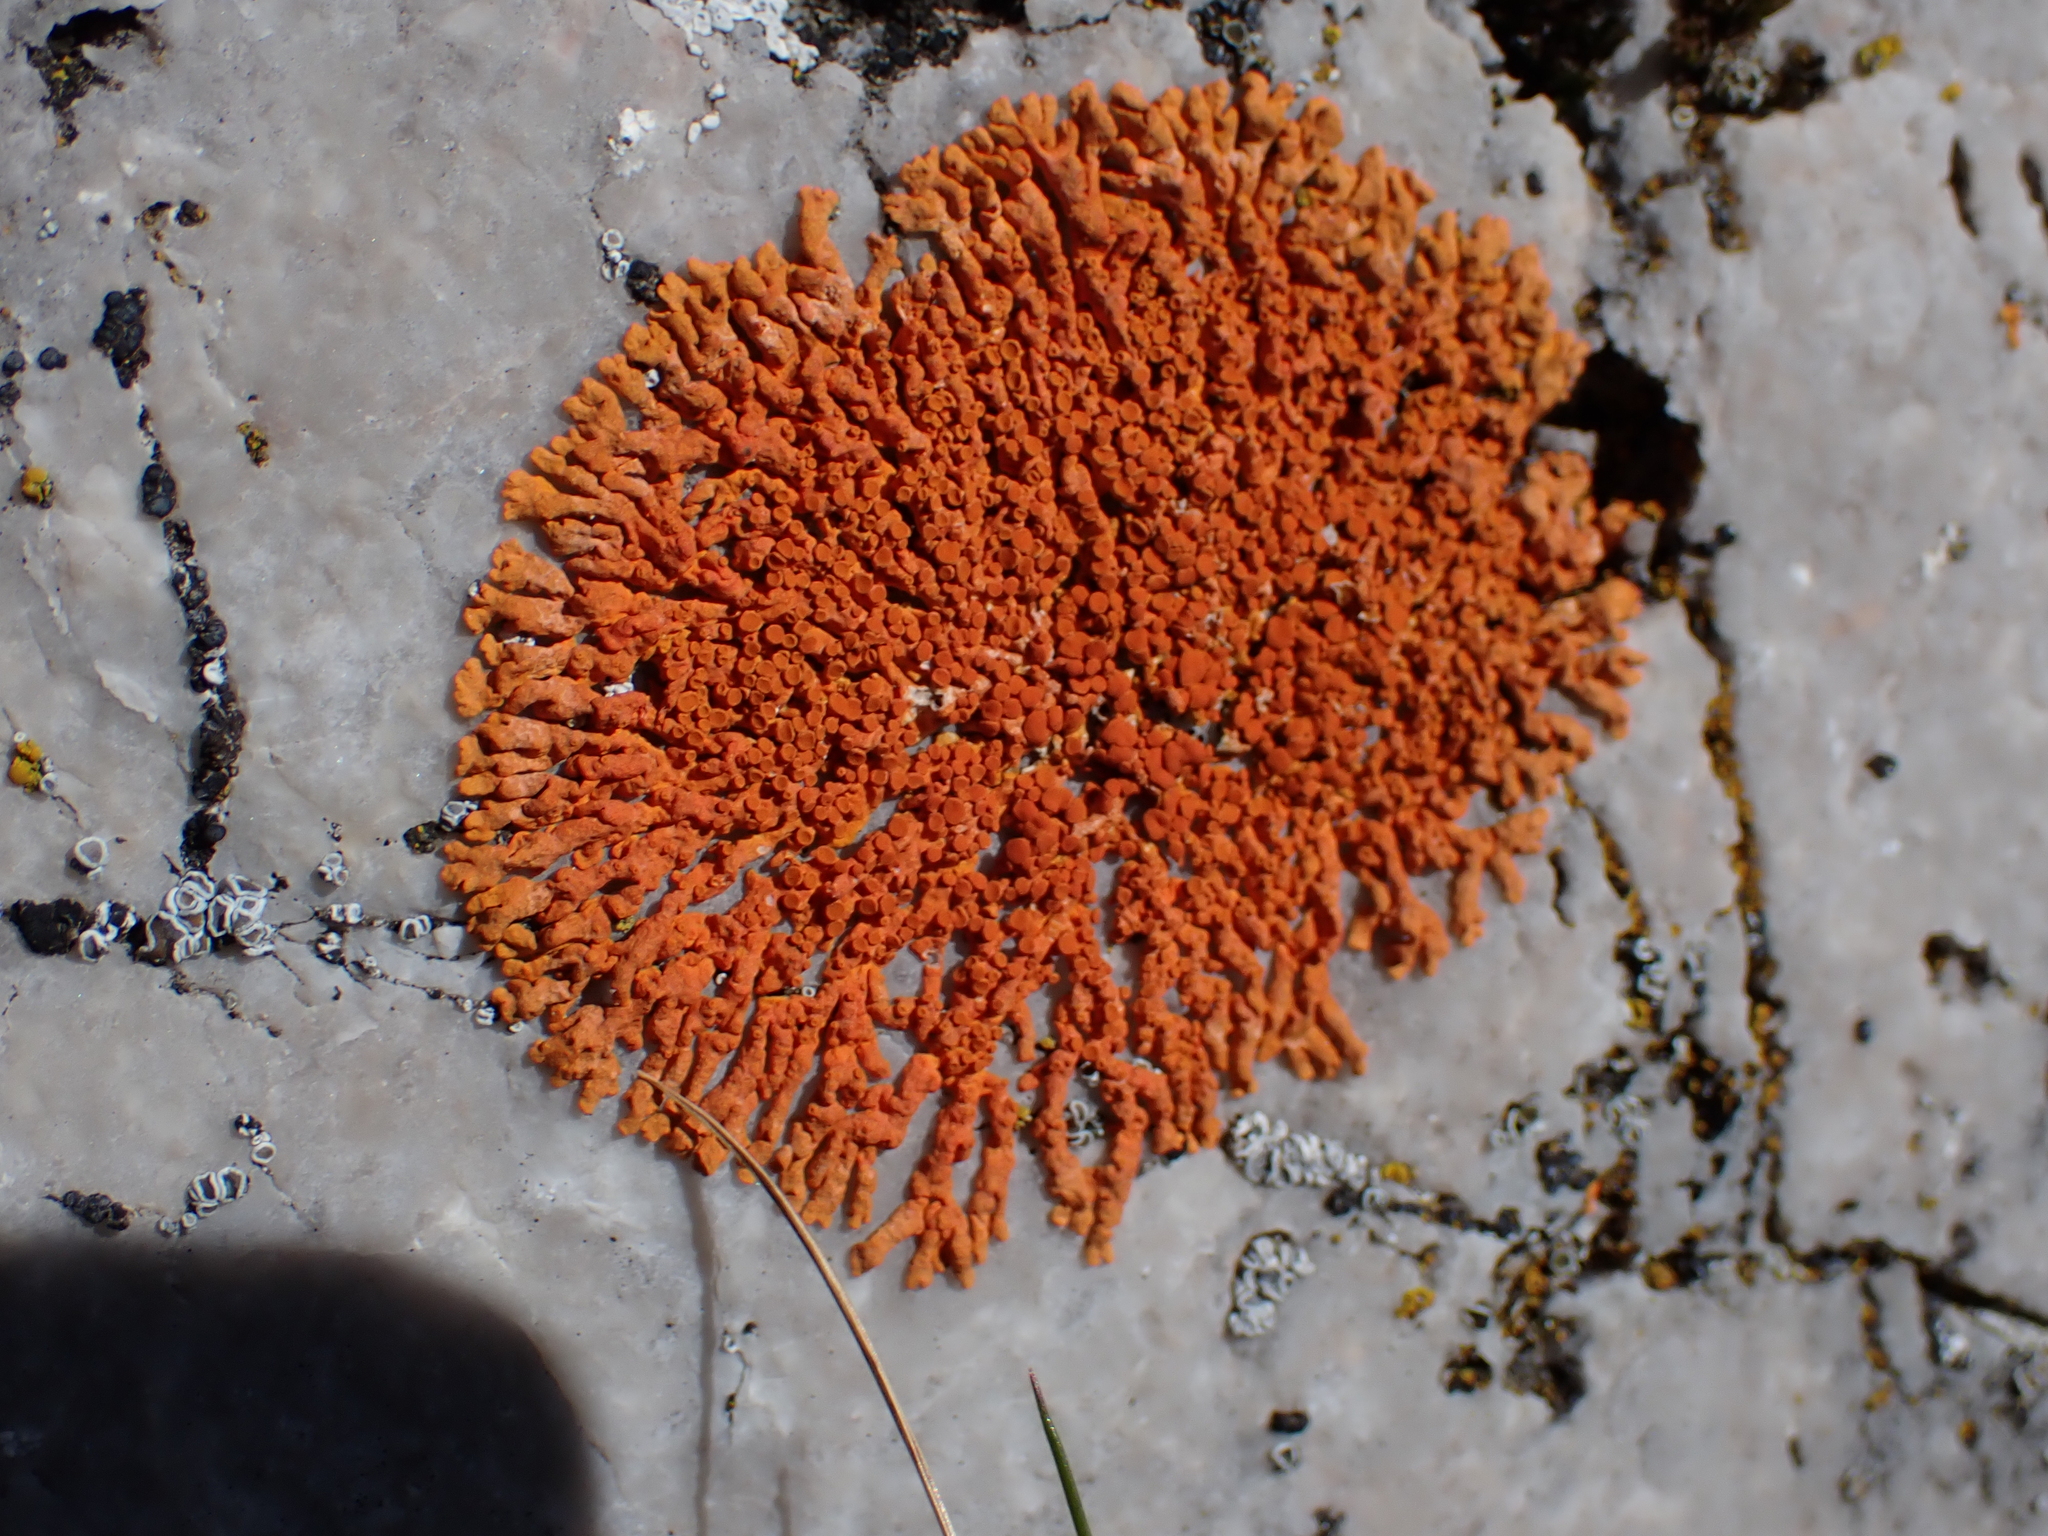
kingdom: Fungi
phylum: Ascomycota
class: Lecanoromycetes
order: Teloschistales
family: Teloschistaceae
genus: Xanthoria
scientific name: Xanthoria elegans
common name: Elegant sunburst lichen
